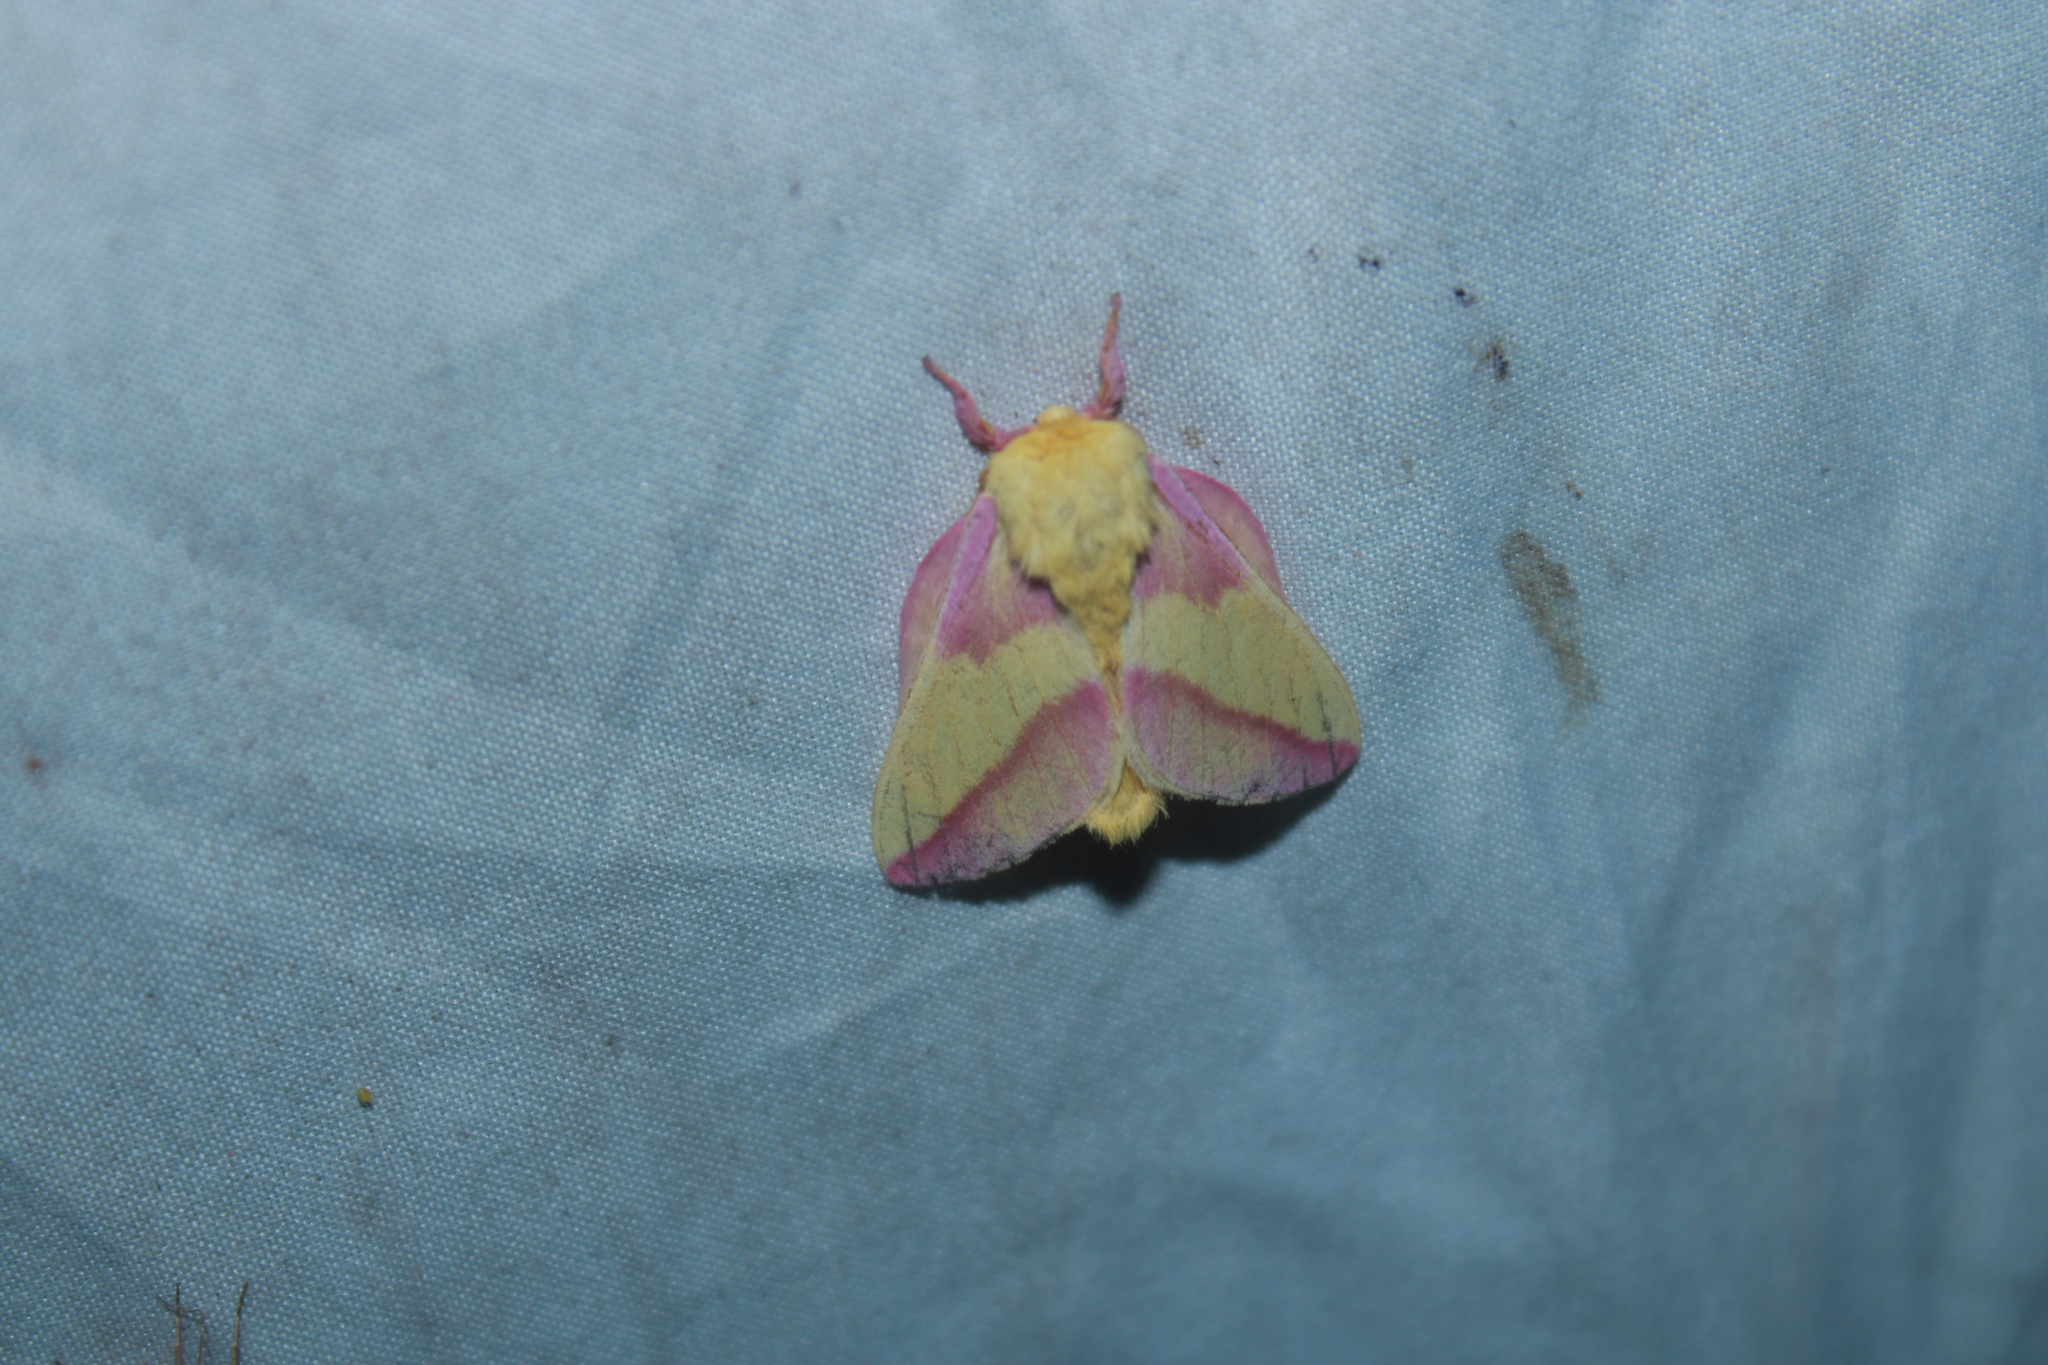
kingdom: Animalia
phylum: Arthropoda
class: Insecta
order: Lepidoptera
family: Saturniidae
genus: Dryocampa
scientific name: Dryocampa rubicunda
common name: Rosy maple moth
